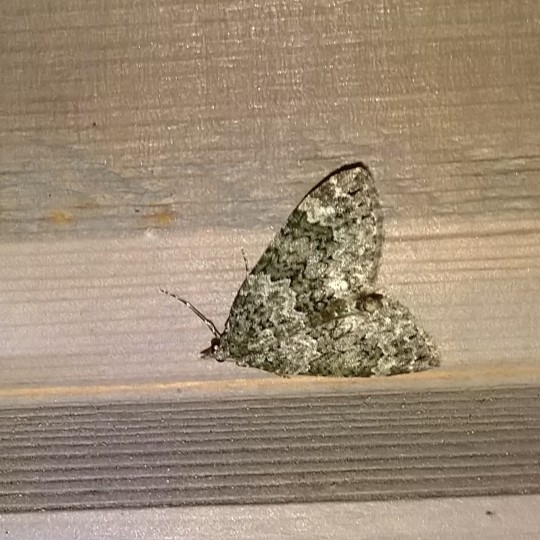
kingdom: Animalia
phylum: Arthropoda
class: Insecta
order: Lepidoptera
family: Geometridae
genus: Chloroclysta
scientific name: Chloroclysta miata
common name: Autumn green carpet
